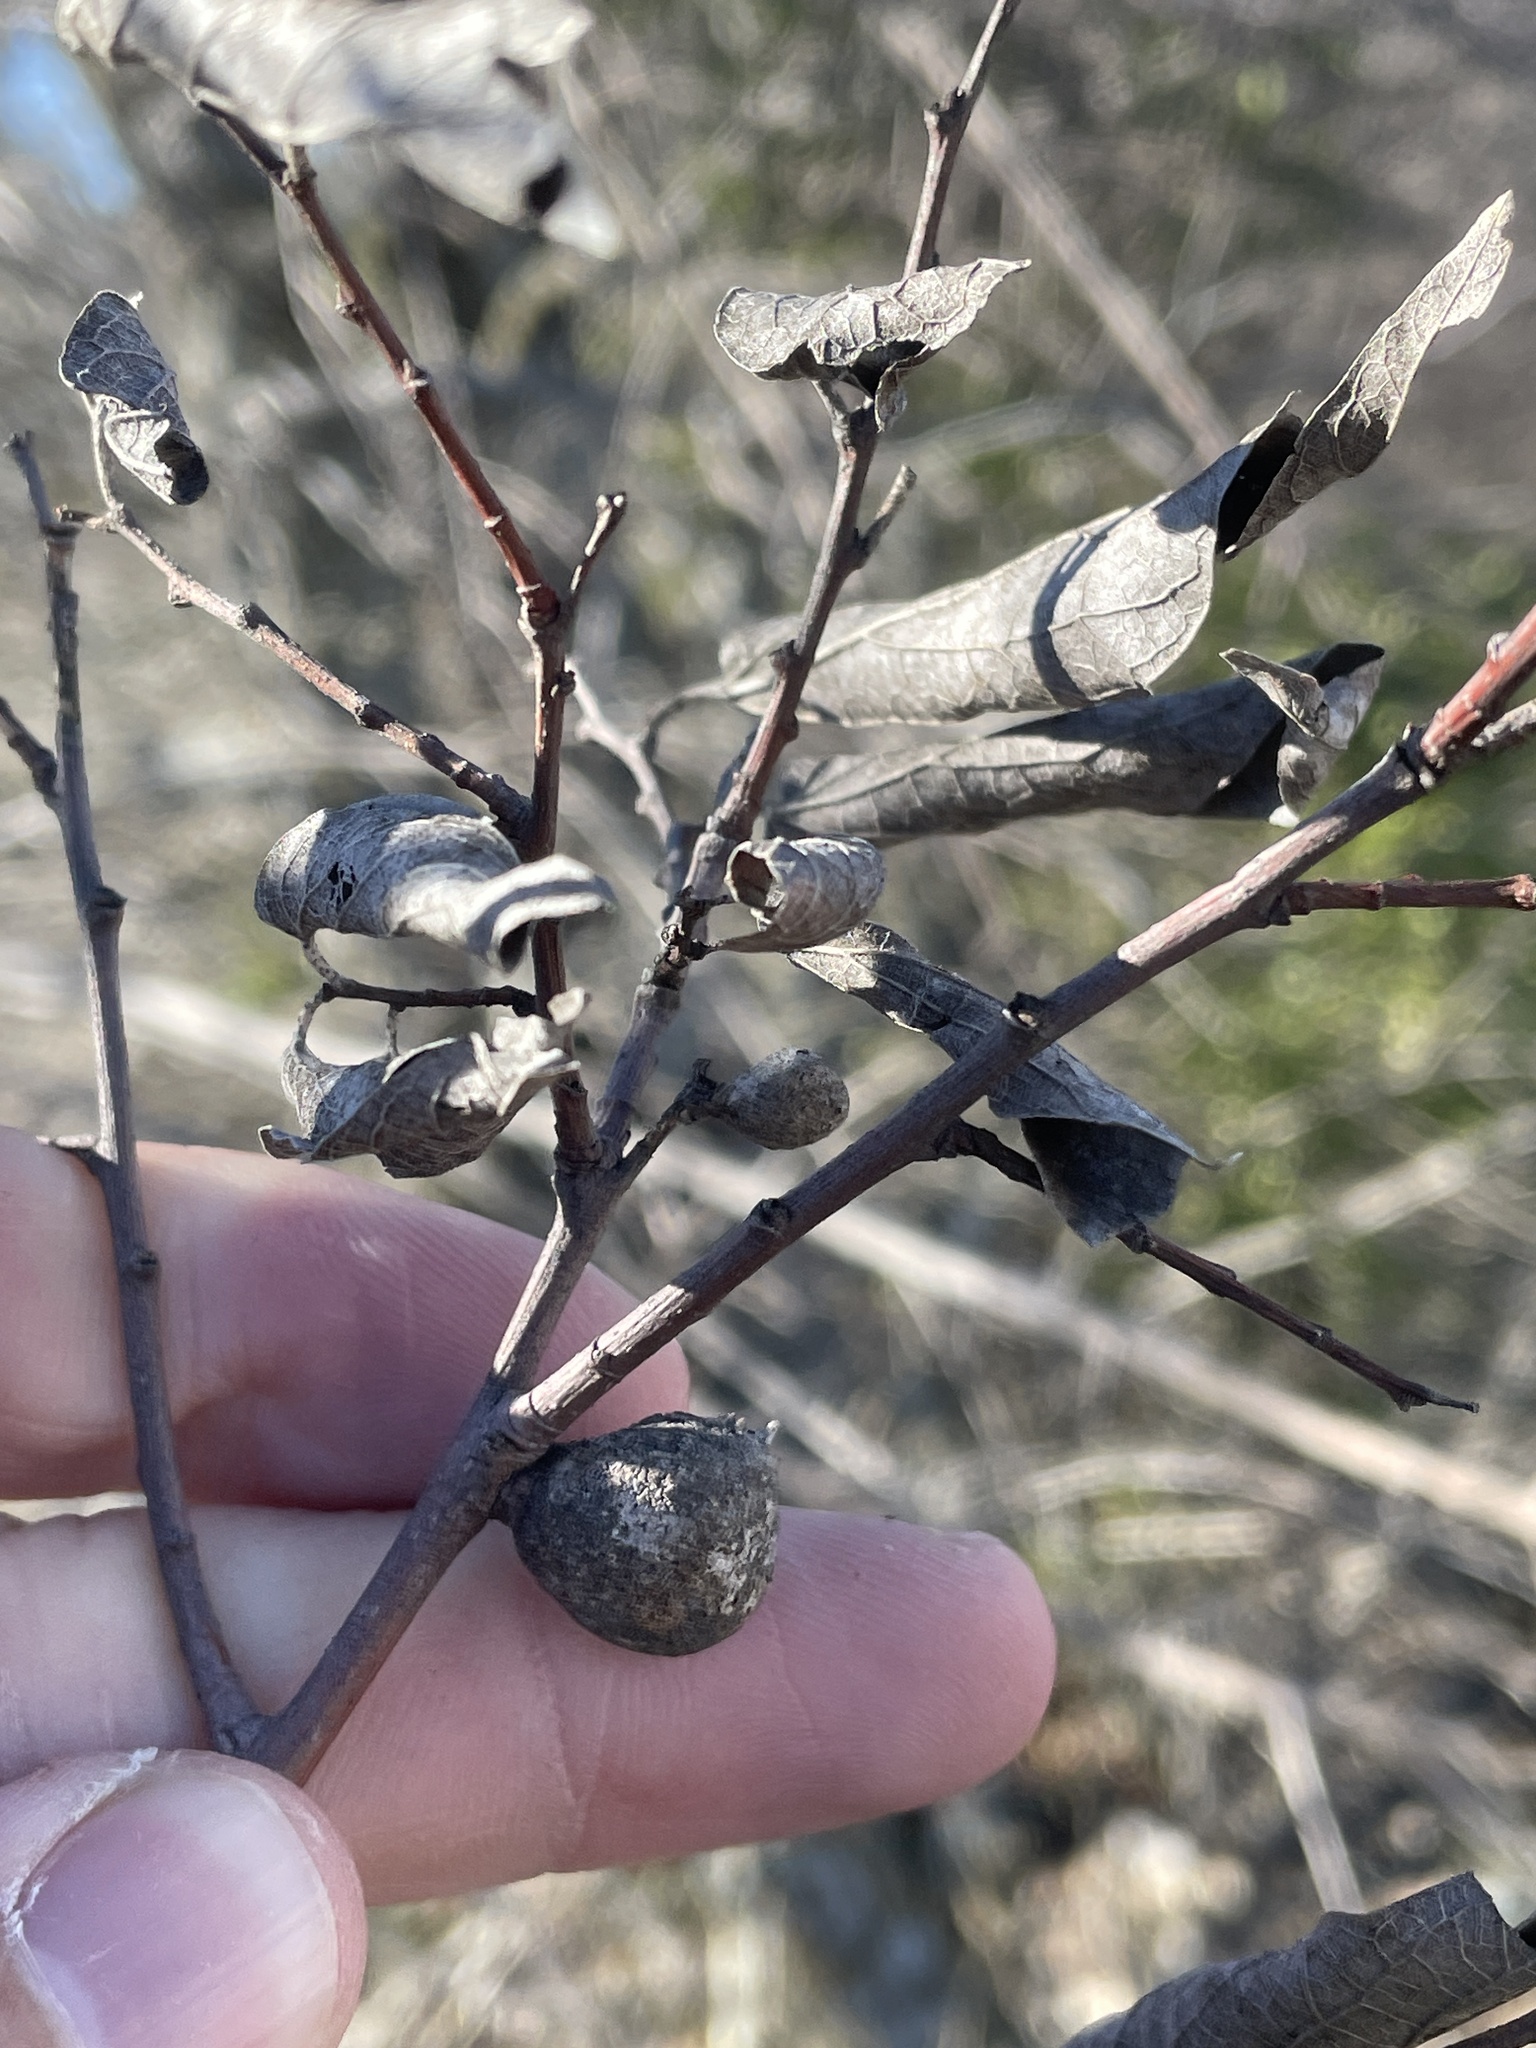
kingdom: Animalia
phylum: Arthropoda
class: Insecta
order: Hemiptera
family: Aphalaridae
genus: Pachypsylla
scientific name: Pachypsylla venusta
